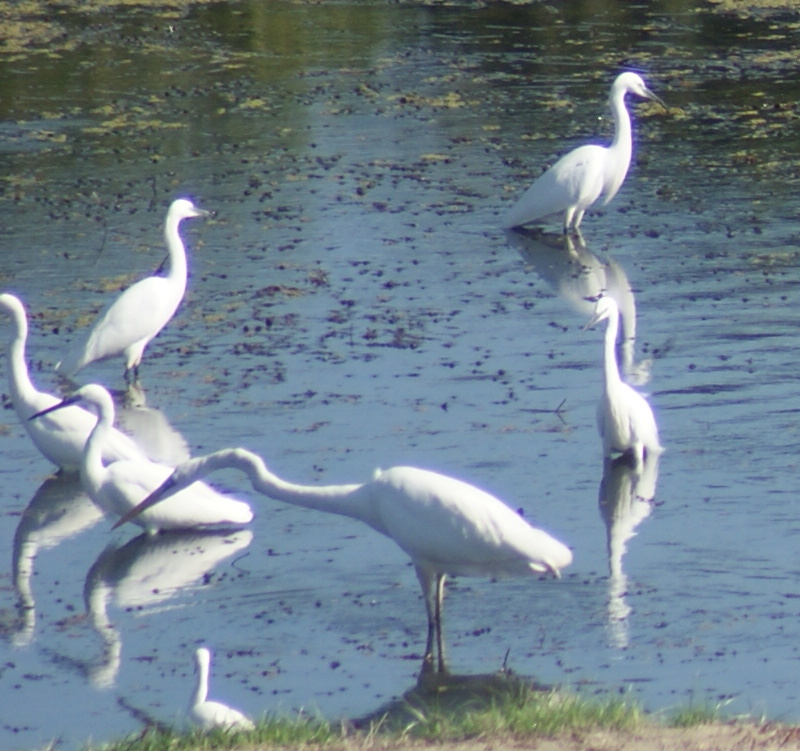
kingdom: Animalia
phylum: Chordata
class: Aves
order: Pelecaniformes
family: Ardeidae
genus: Ardea
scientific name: Ardea alba
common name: Great egret
